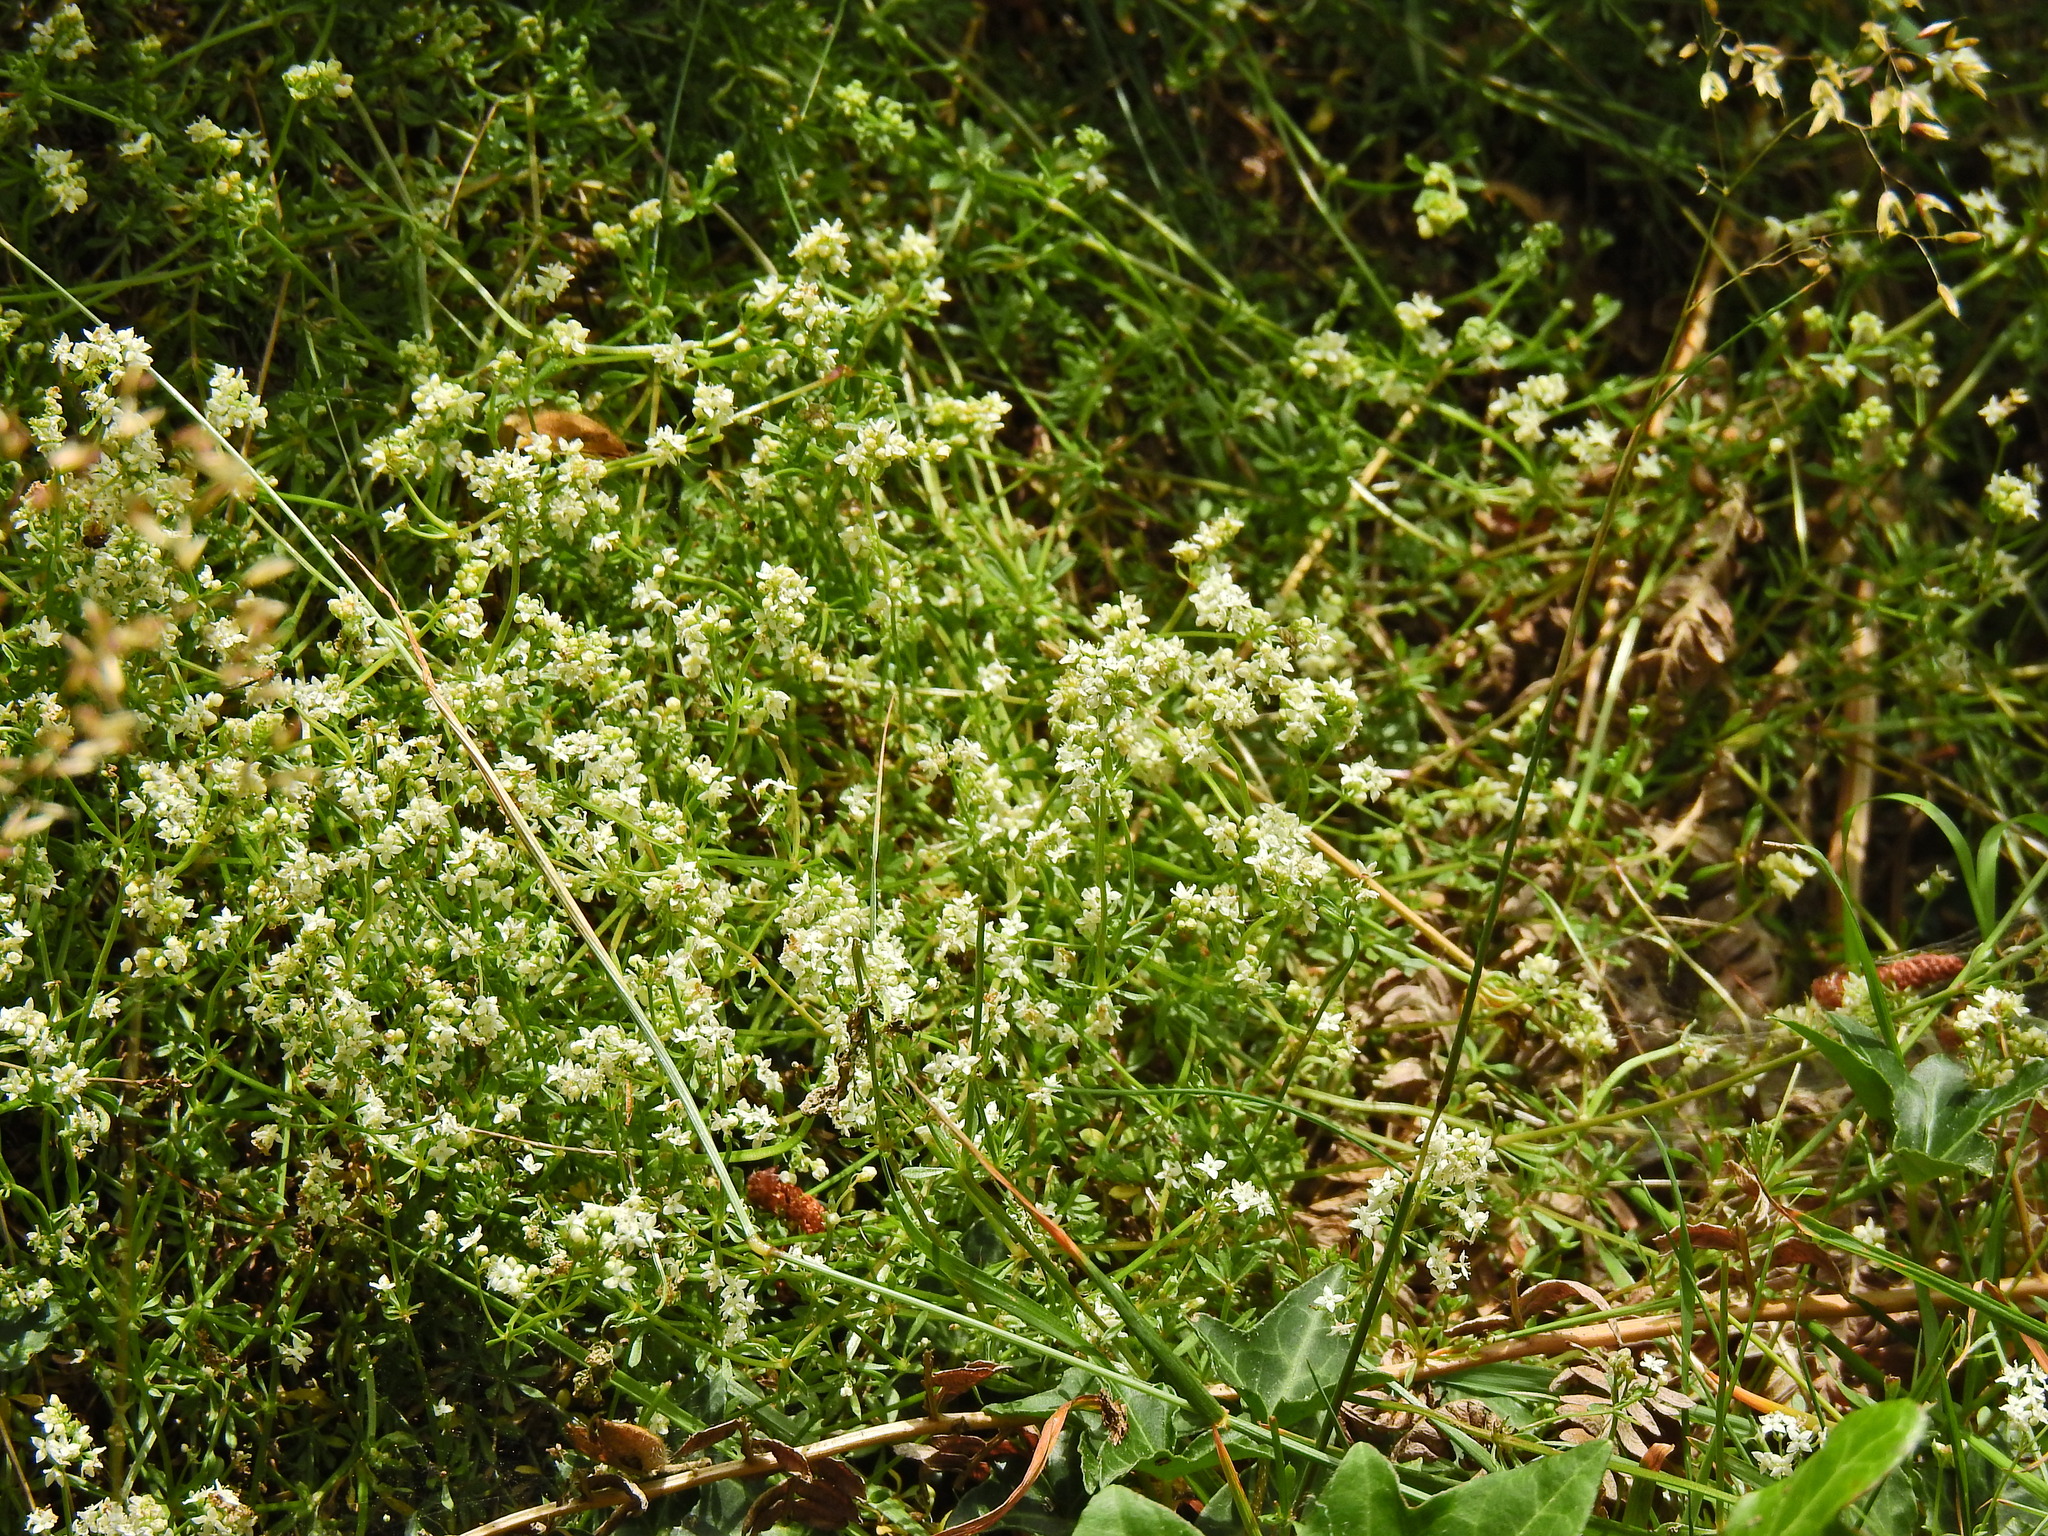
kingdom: Plantae
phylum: Tracheophyta
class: Magnoliopsida
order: Gentianales
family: Rubiaceae
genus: Galium
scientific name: Galium saxatile
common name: Heath bedstraw
